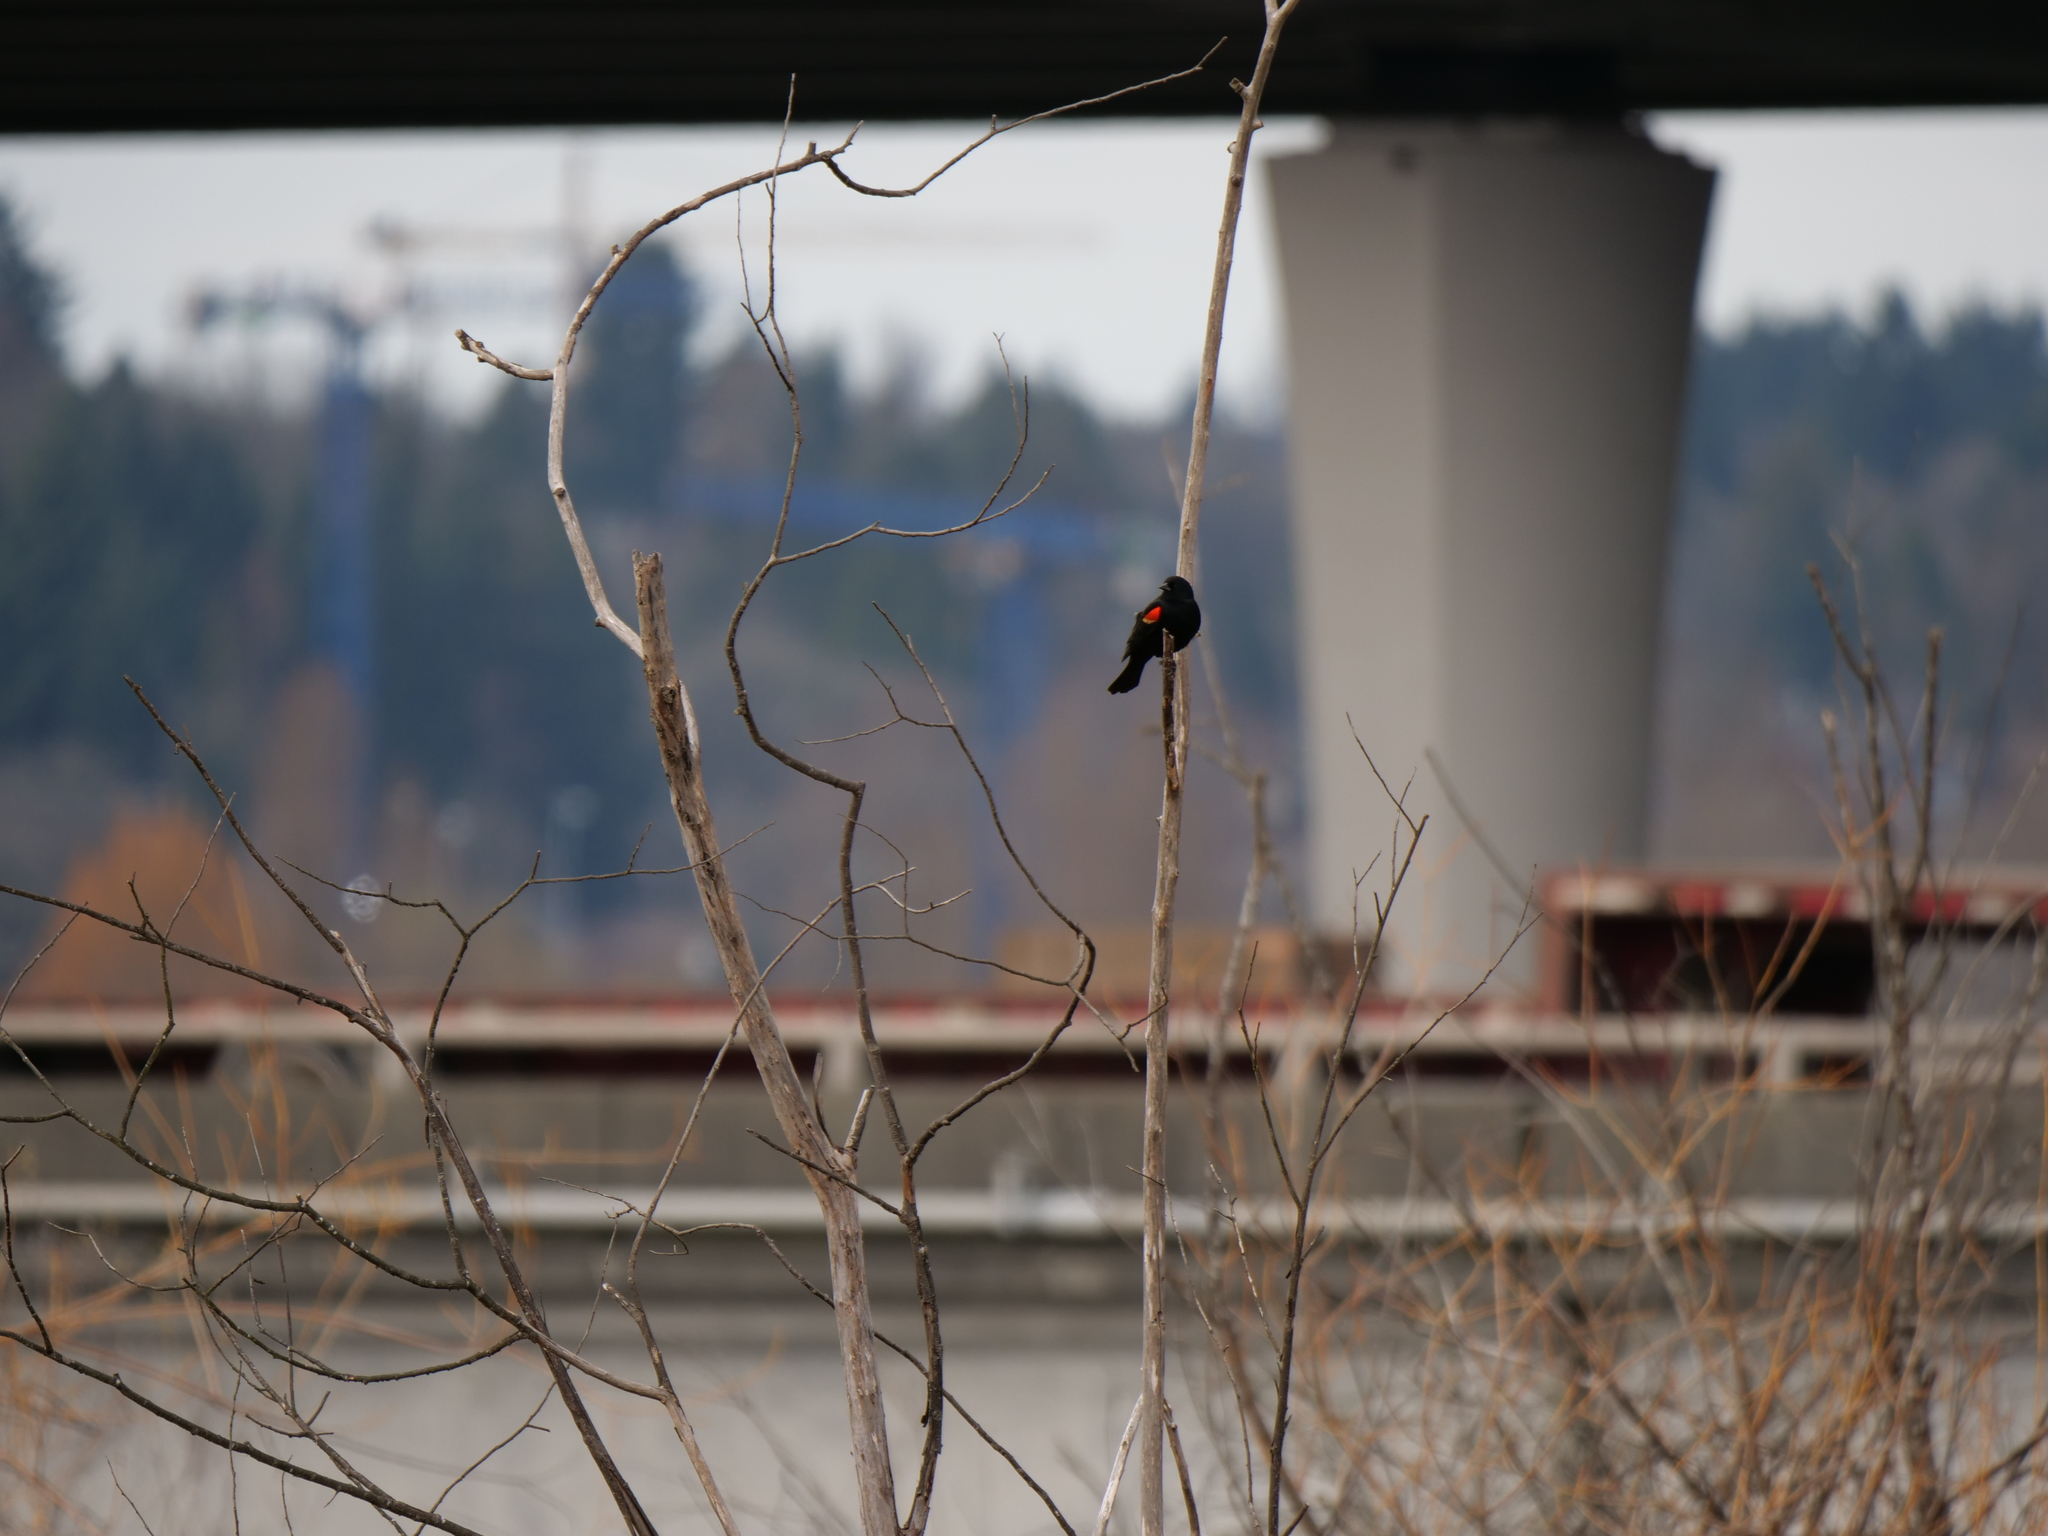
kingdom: Animalia
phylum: Chordata
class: Aves
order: Passeriformes
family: Icteridae
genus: Agelaius
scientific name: Agelaius phoeniceus
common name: Red-winged blackbird
